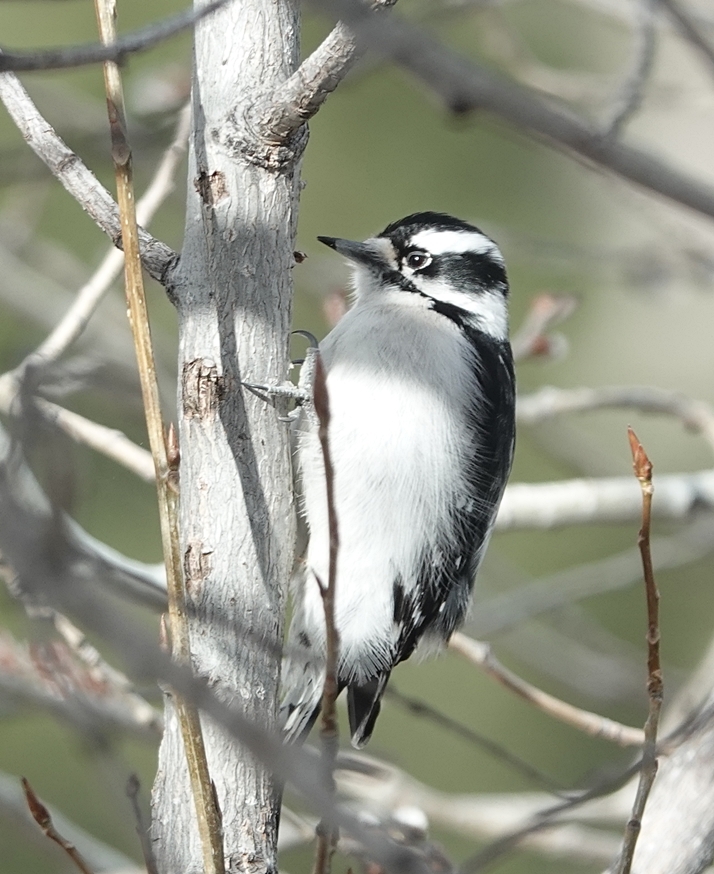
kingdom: Animalia
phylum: Chordata
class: Aves
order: Piciformes
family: Picidae
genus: Dryobates
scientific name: Dryobates pubescens
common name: Downy woodpecker
